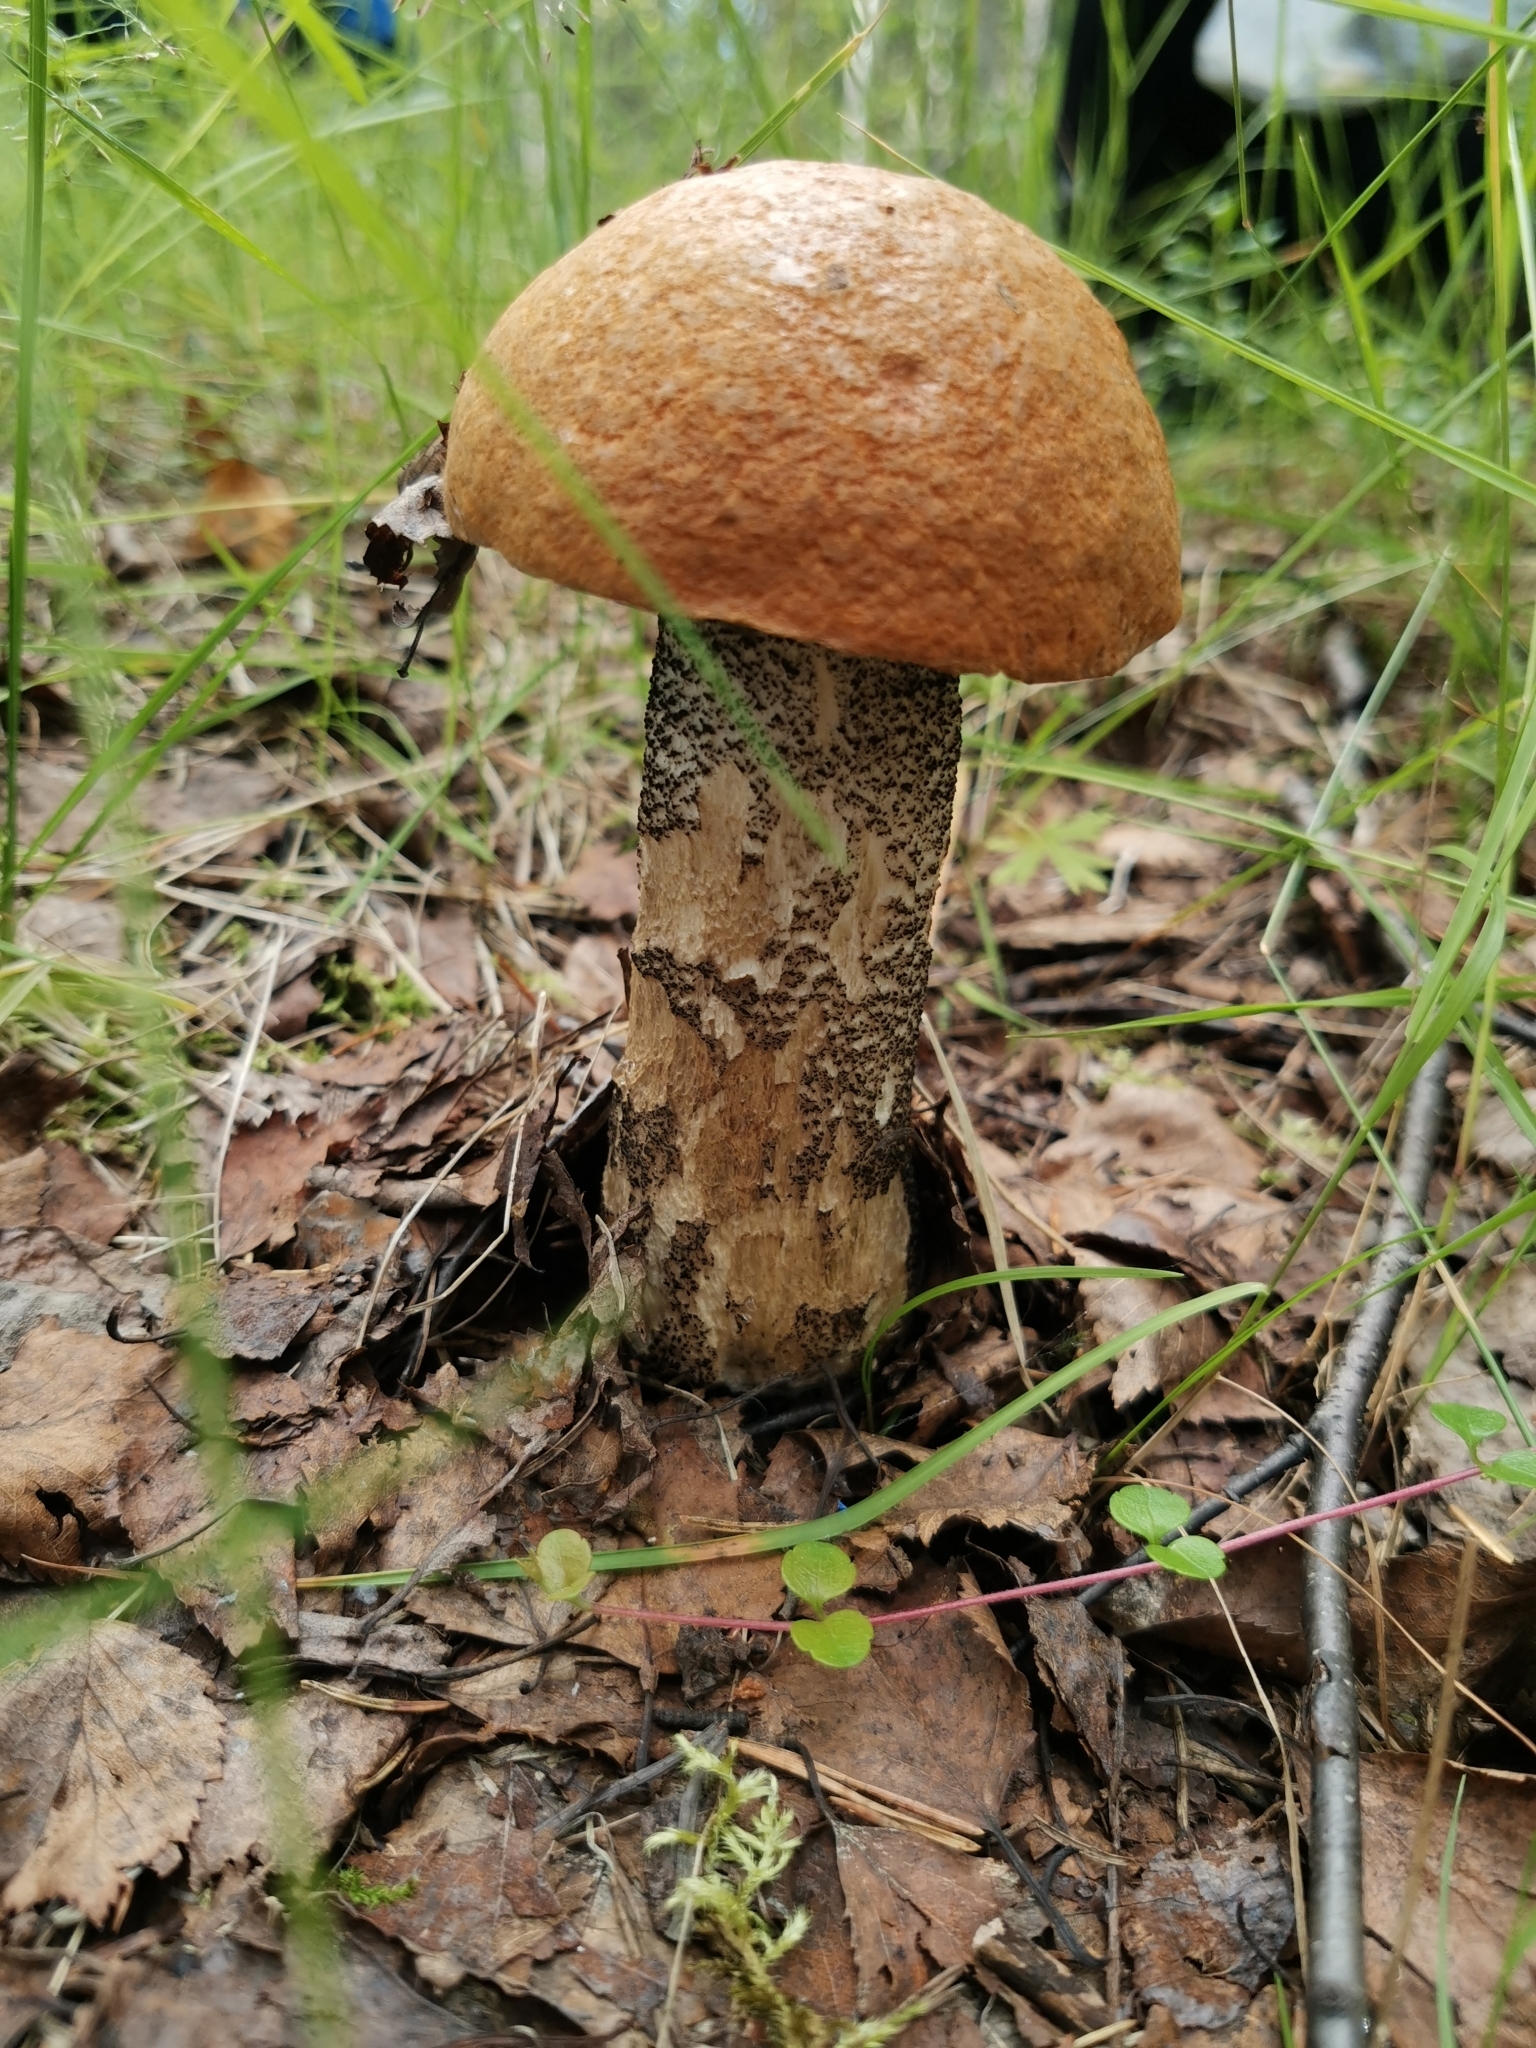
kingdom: Fungi
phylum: Basidiomycota
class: Agaricomycetes
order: Boletales
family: Boletaceae
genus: Leccinum
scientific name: Leccinum versipelle
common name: Orange birch bolete
